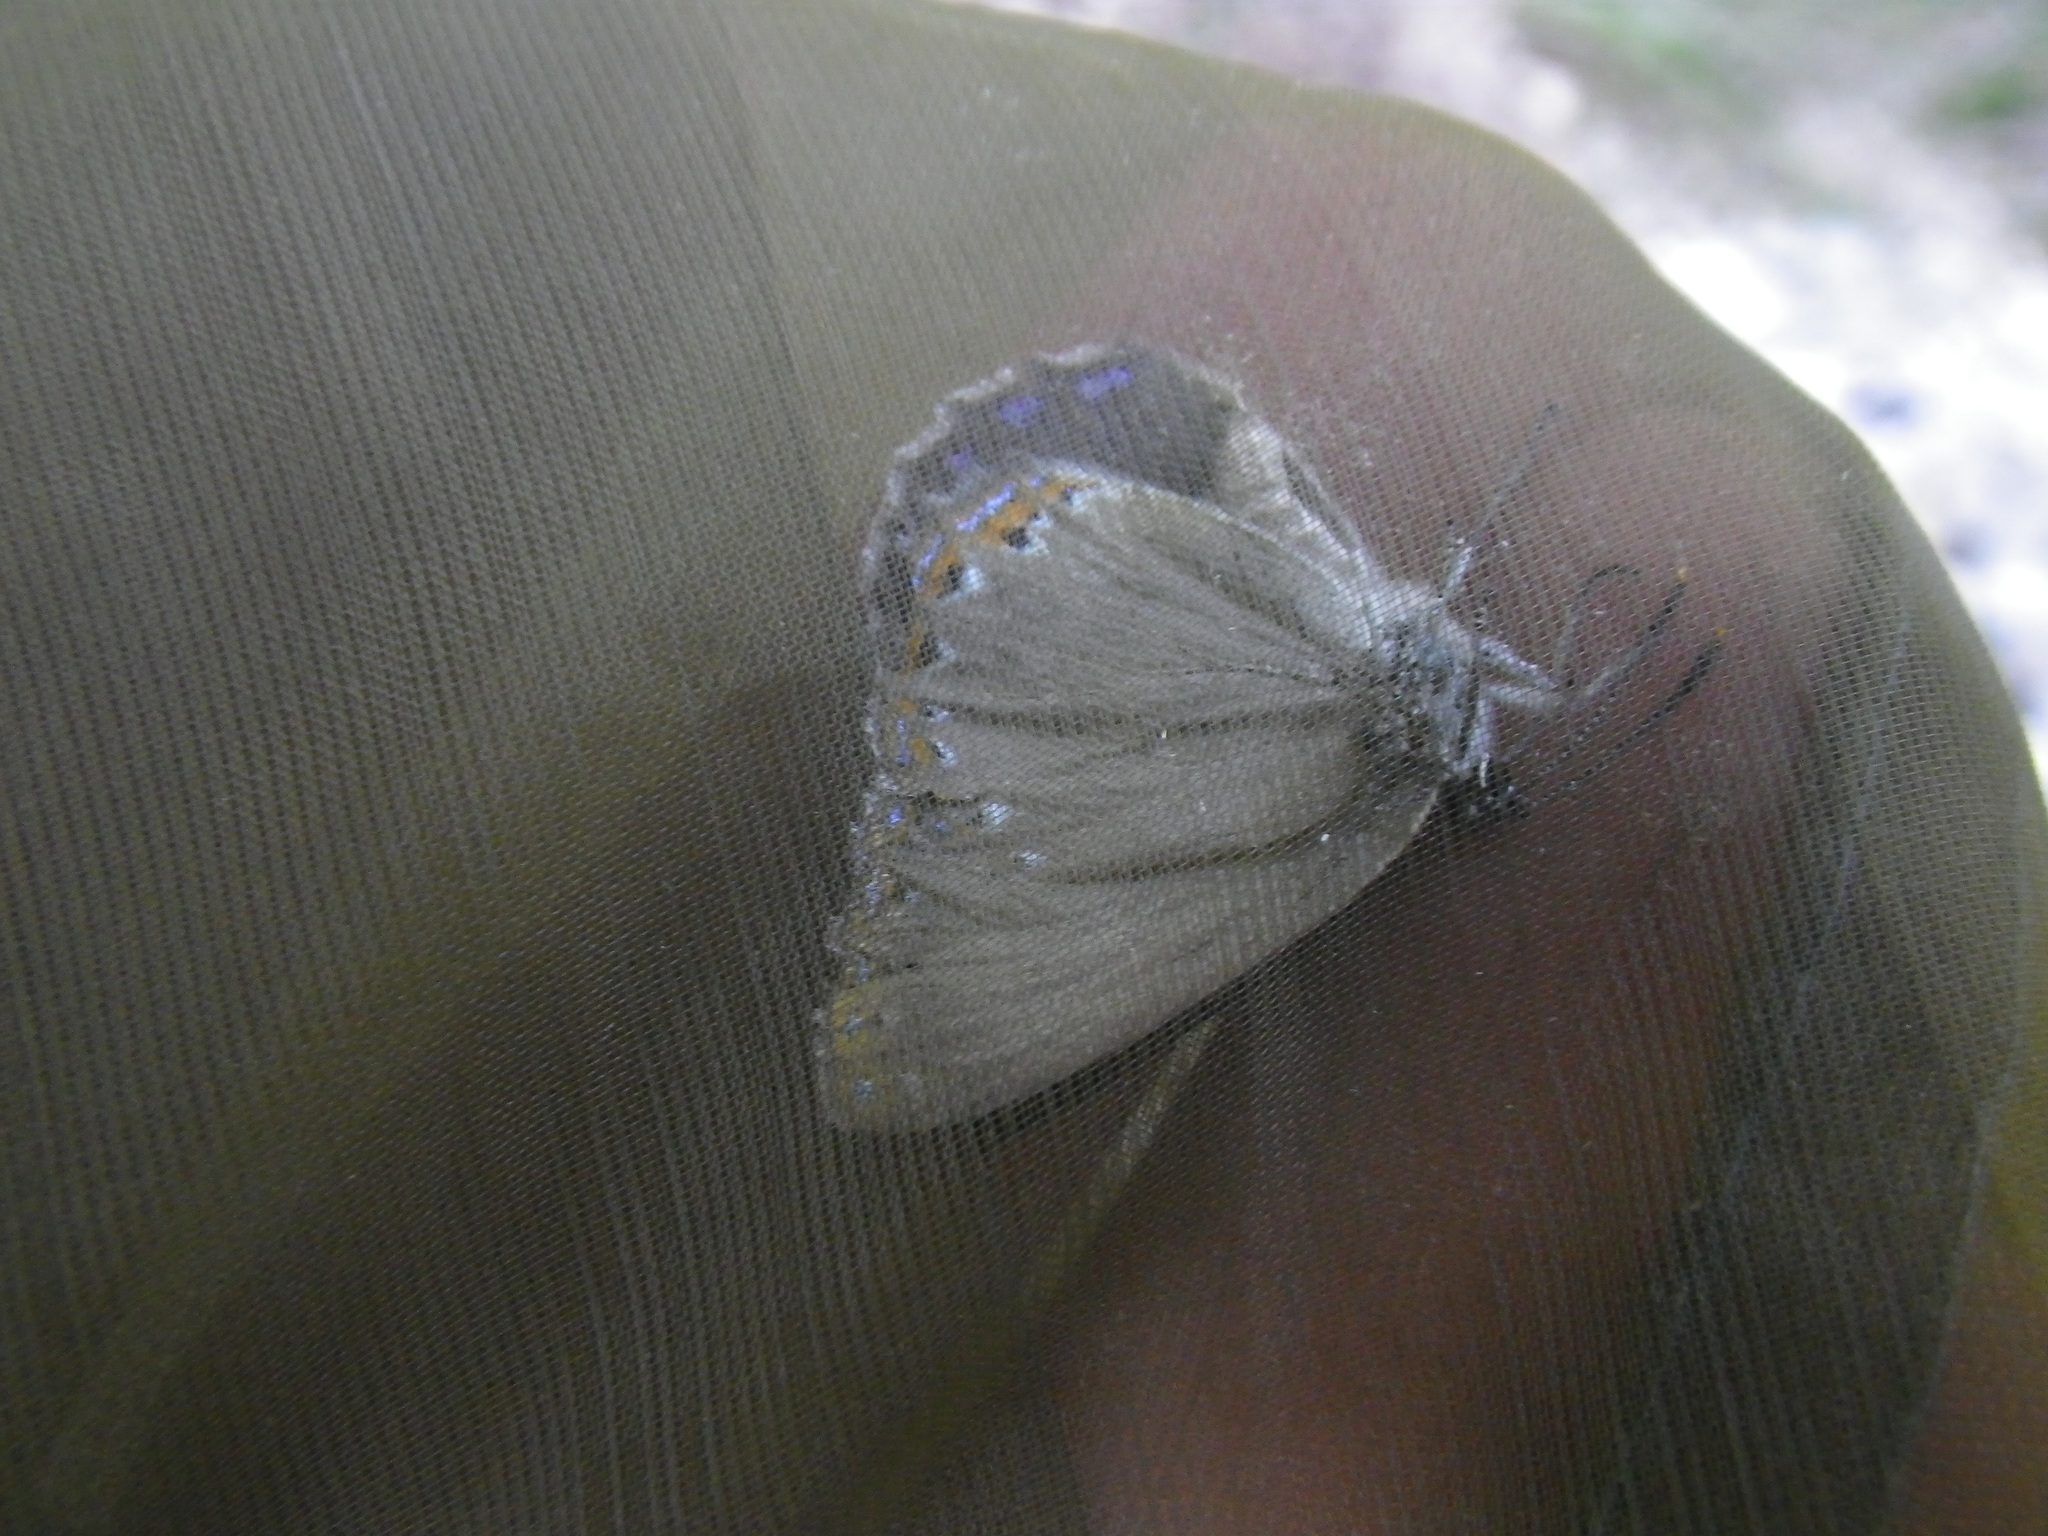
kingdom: Animalia
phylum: Arthropoda
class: Insecta
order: Lepidoptera
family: Lycaenidae
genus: Laeosopis
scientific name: Laeosopis roboris
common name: Spanish purple hairstreak
